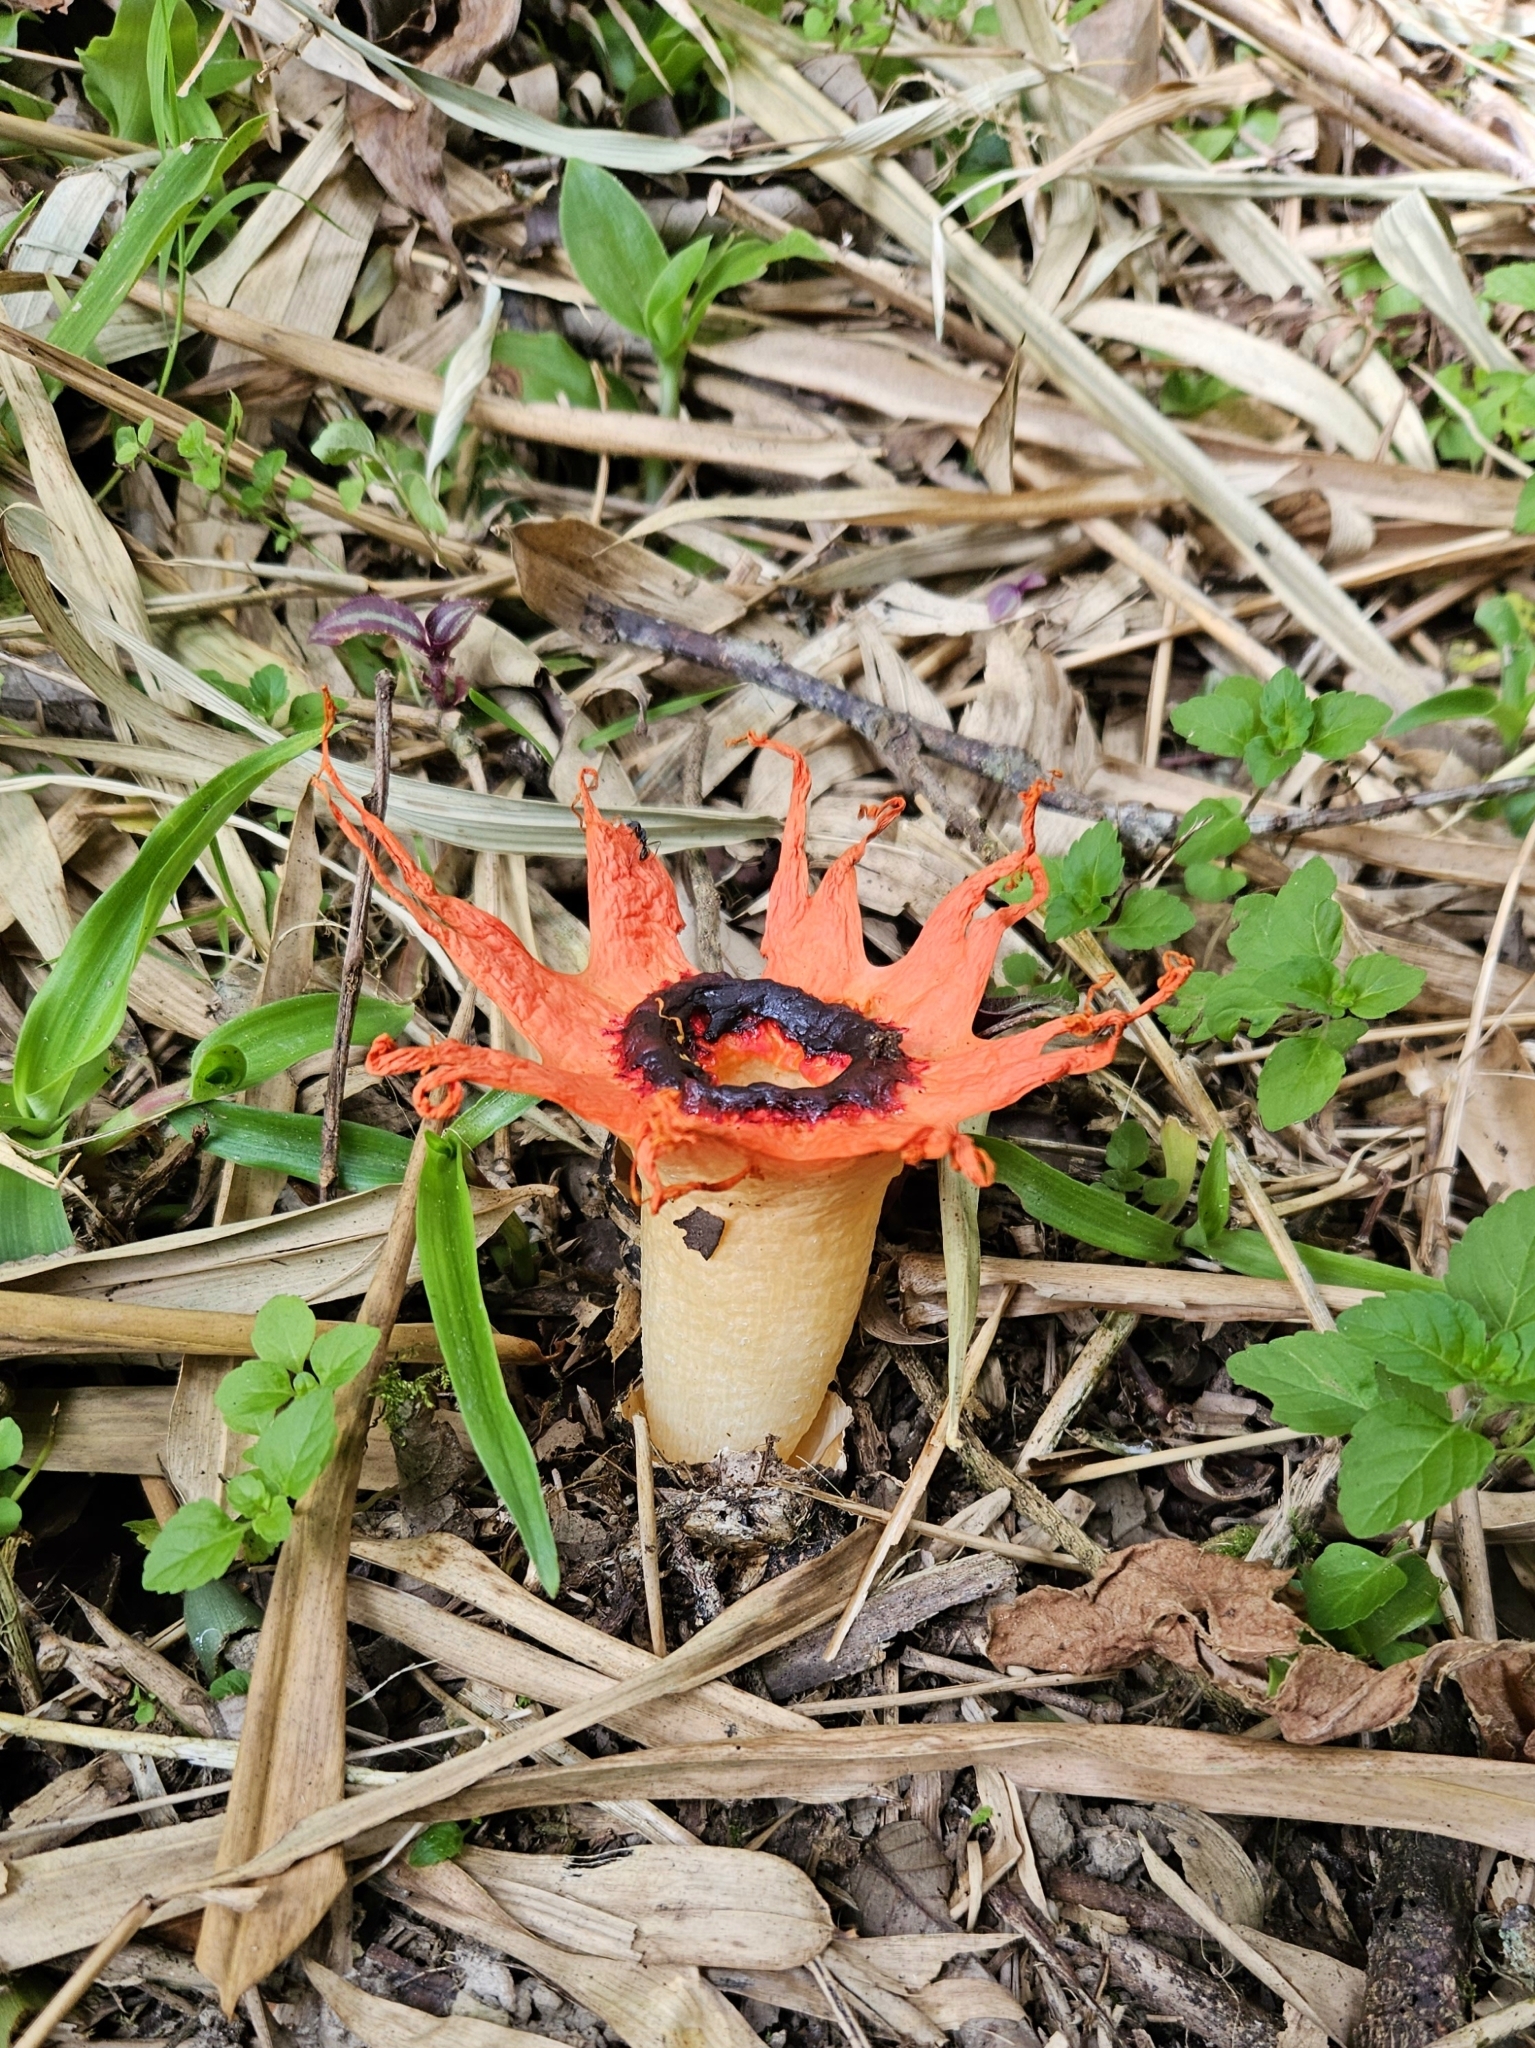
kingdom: Fungi
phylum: Basidiomycota
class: Agaricomycetes
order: Phallales
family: Phallaceae
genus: Aseroe
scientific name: Aseroe rubra
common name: Starfish fungus
